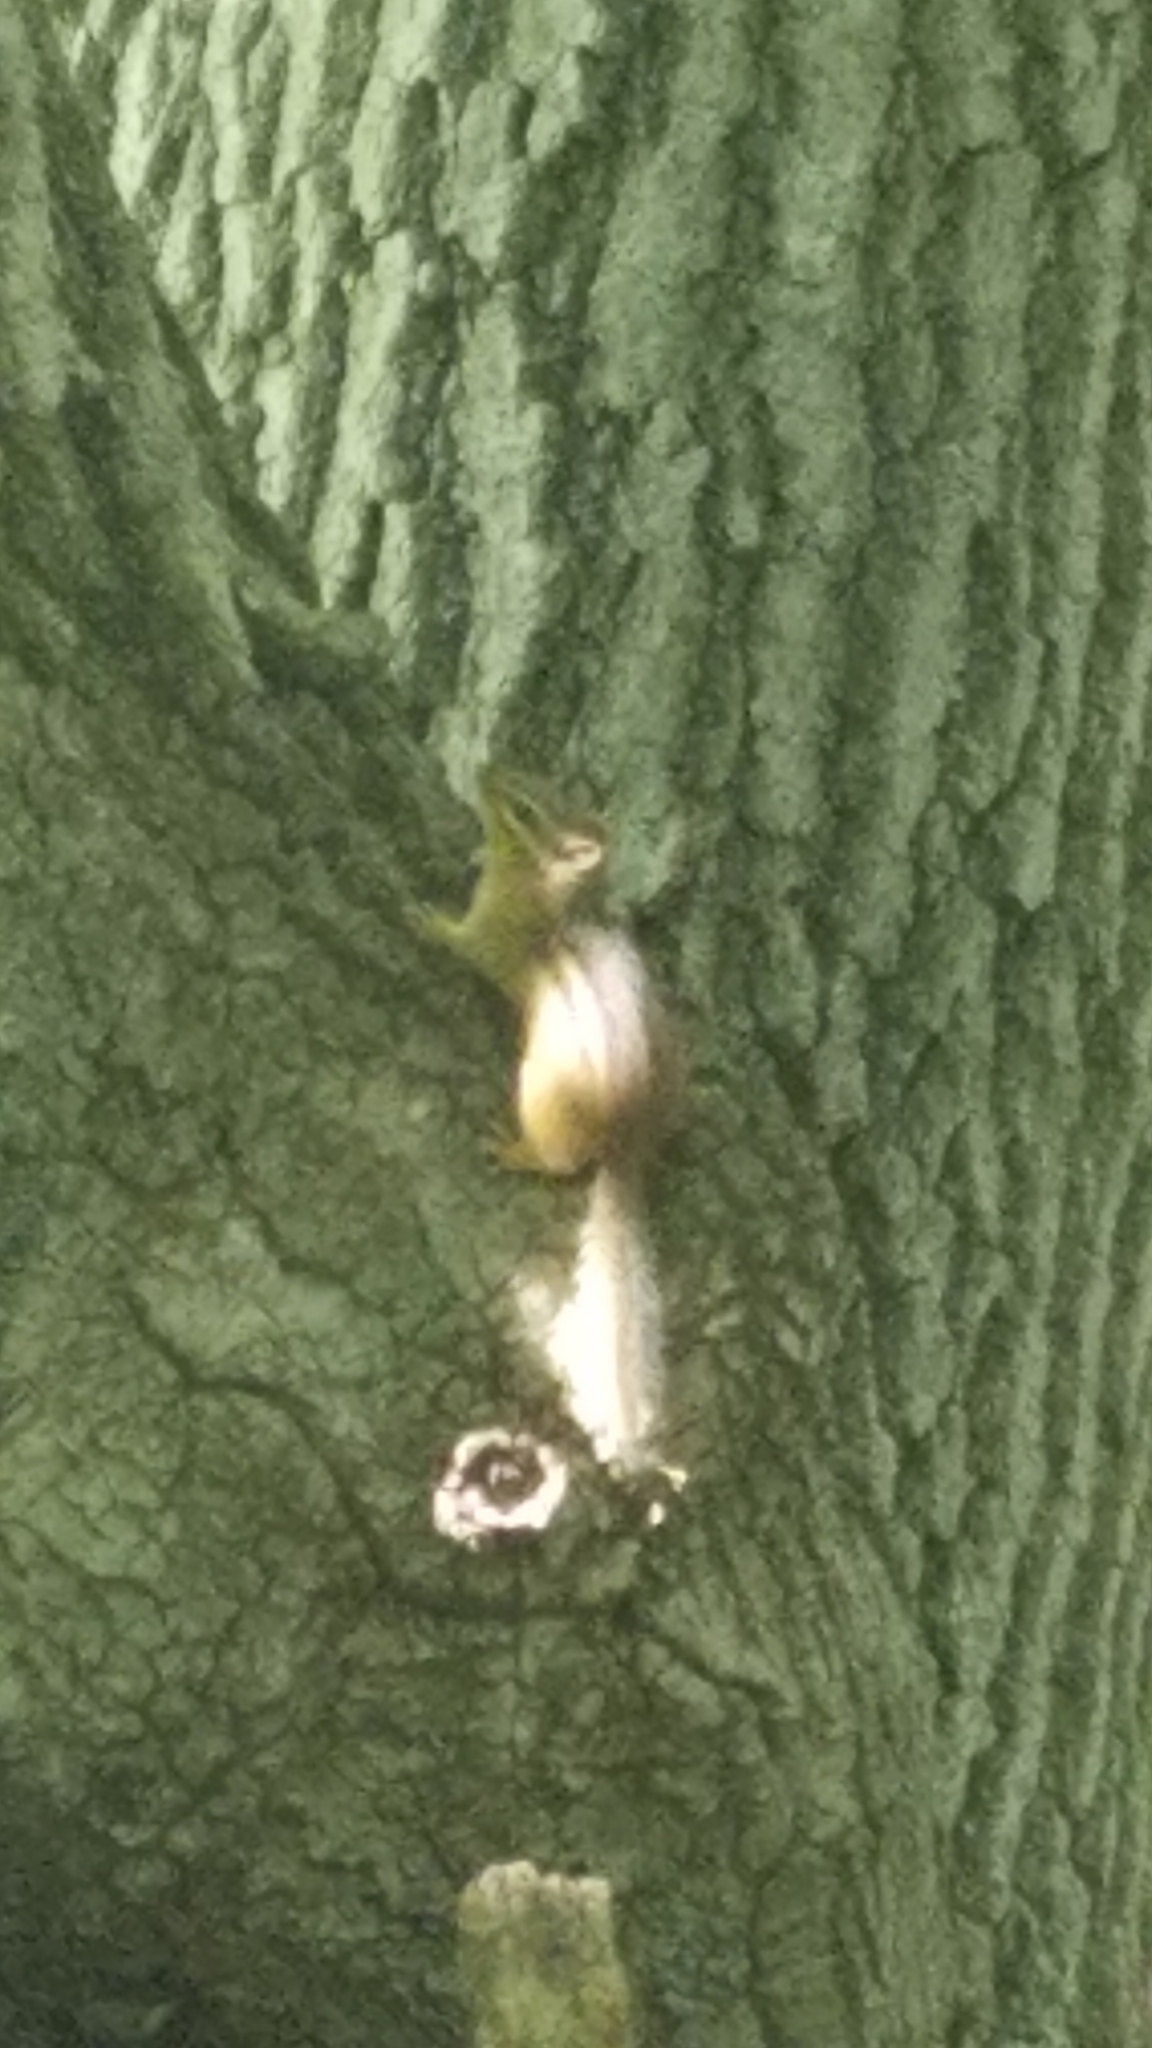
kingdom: Animalia
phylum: Chordata
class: Mammalia
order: Rodentia
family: Sciuridae
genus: Tamias
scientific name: Tamias striatus
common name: Eastern chipmunk
